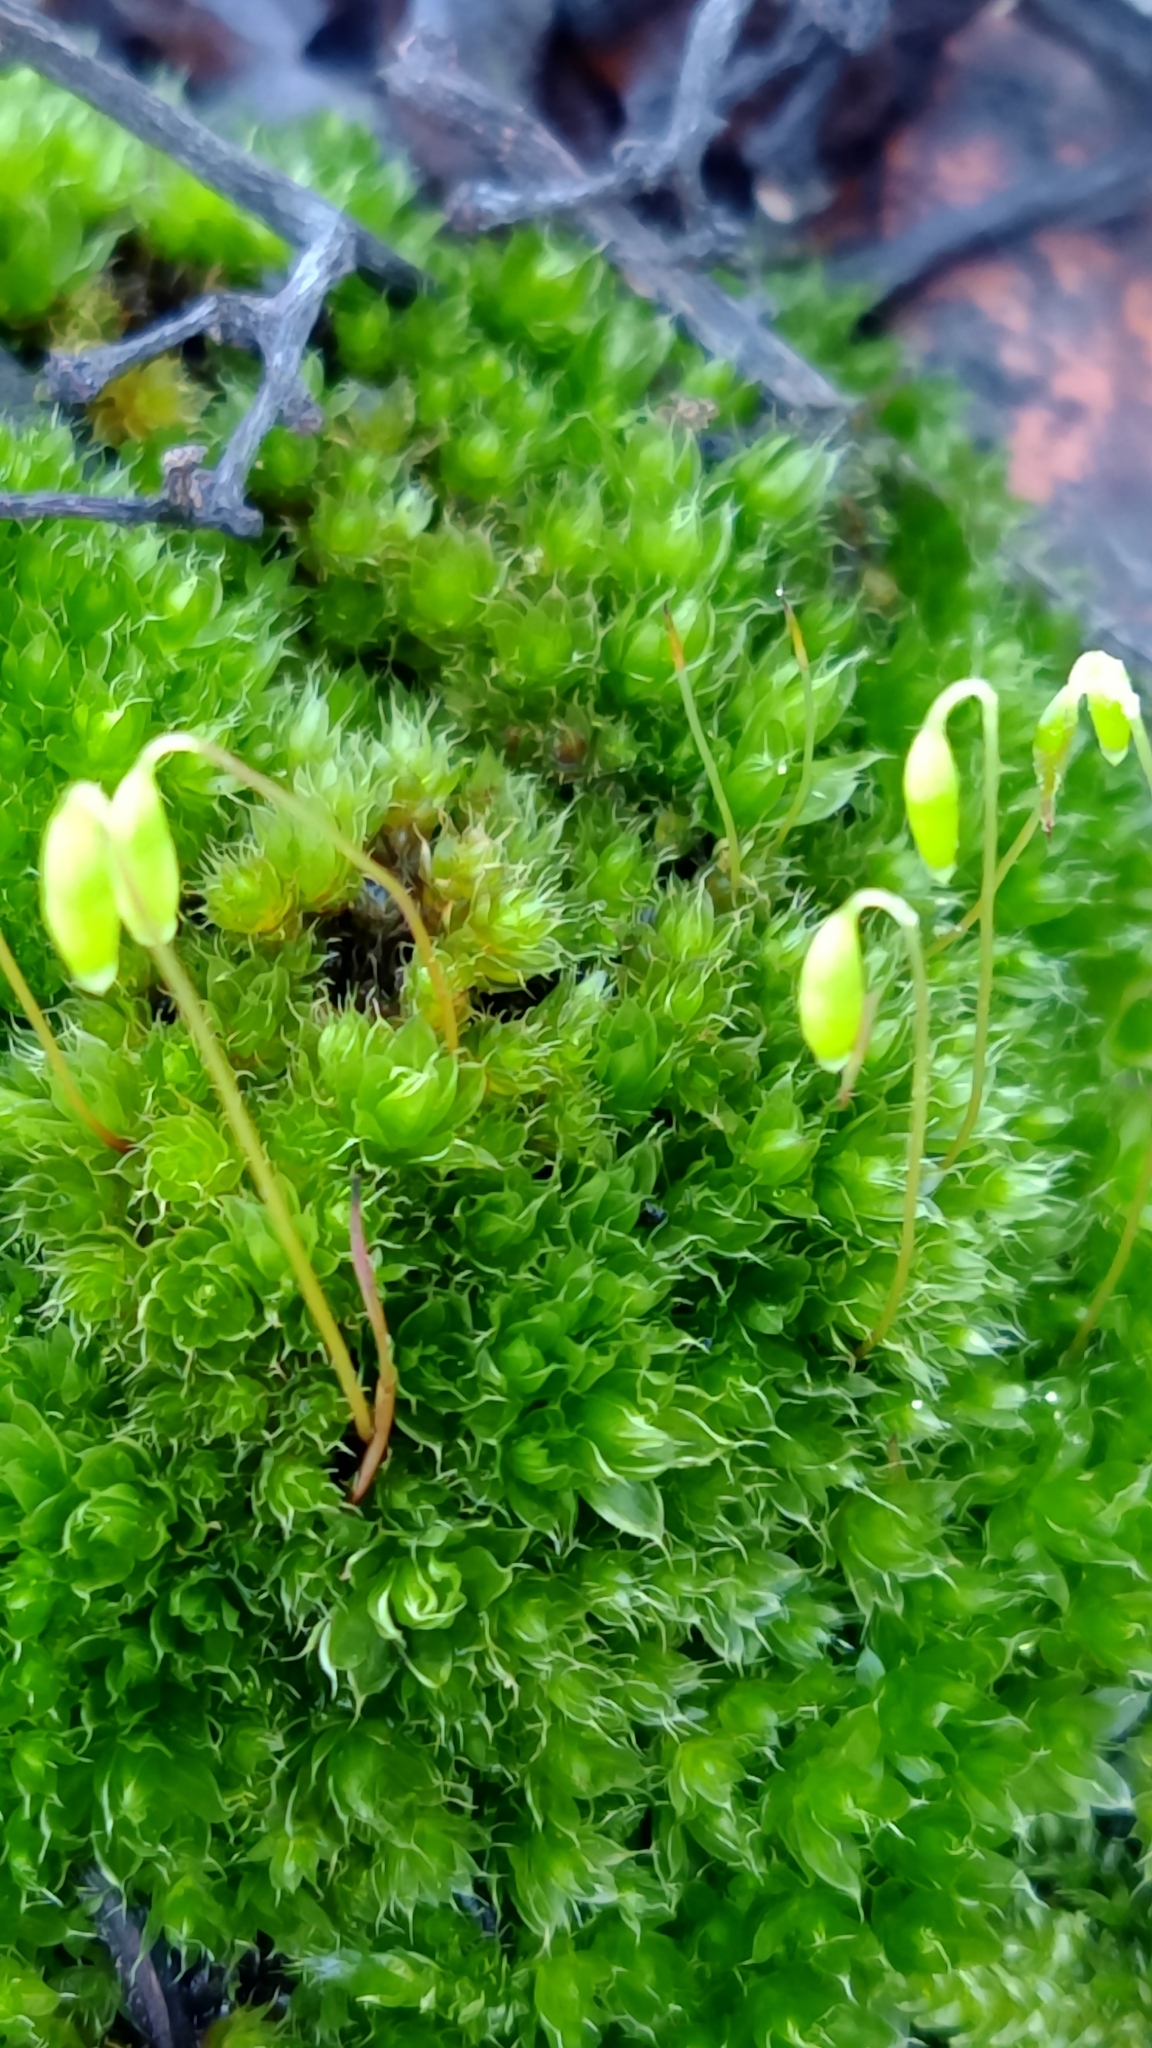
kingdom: Plantae
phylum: Bryophyta
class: Bryopsida
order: Bryales
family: Bryaceae
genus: Rosulabryum
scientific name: Rosulabryum capillare
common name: Capillary thread-moss
